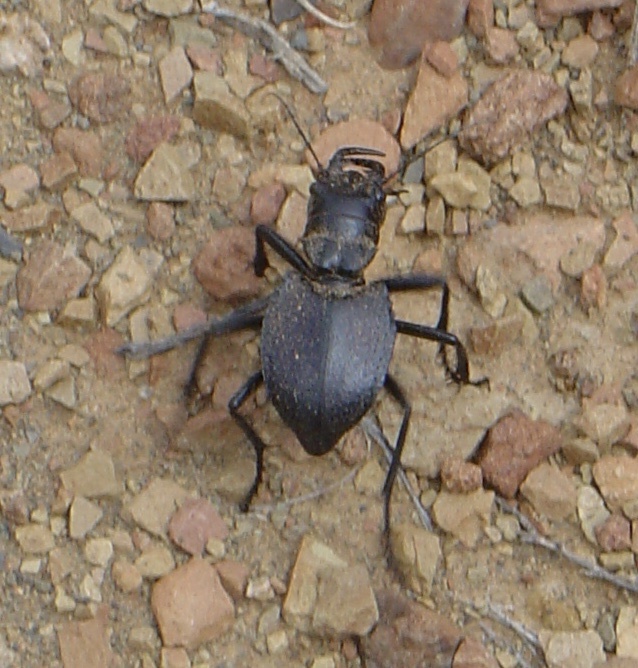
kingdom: Animalia
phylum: Arthropoda
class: Insecta
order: Coleoptera
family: Carabidae
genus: Manticora
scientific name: Manticora tuberculata
